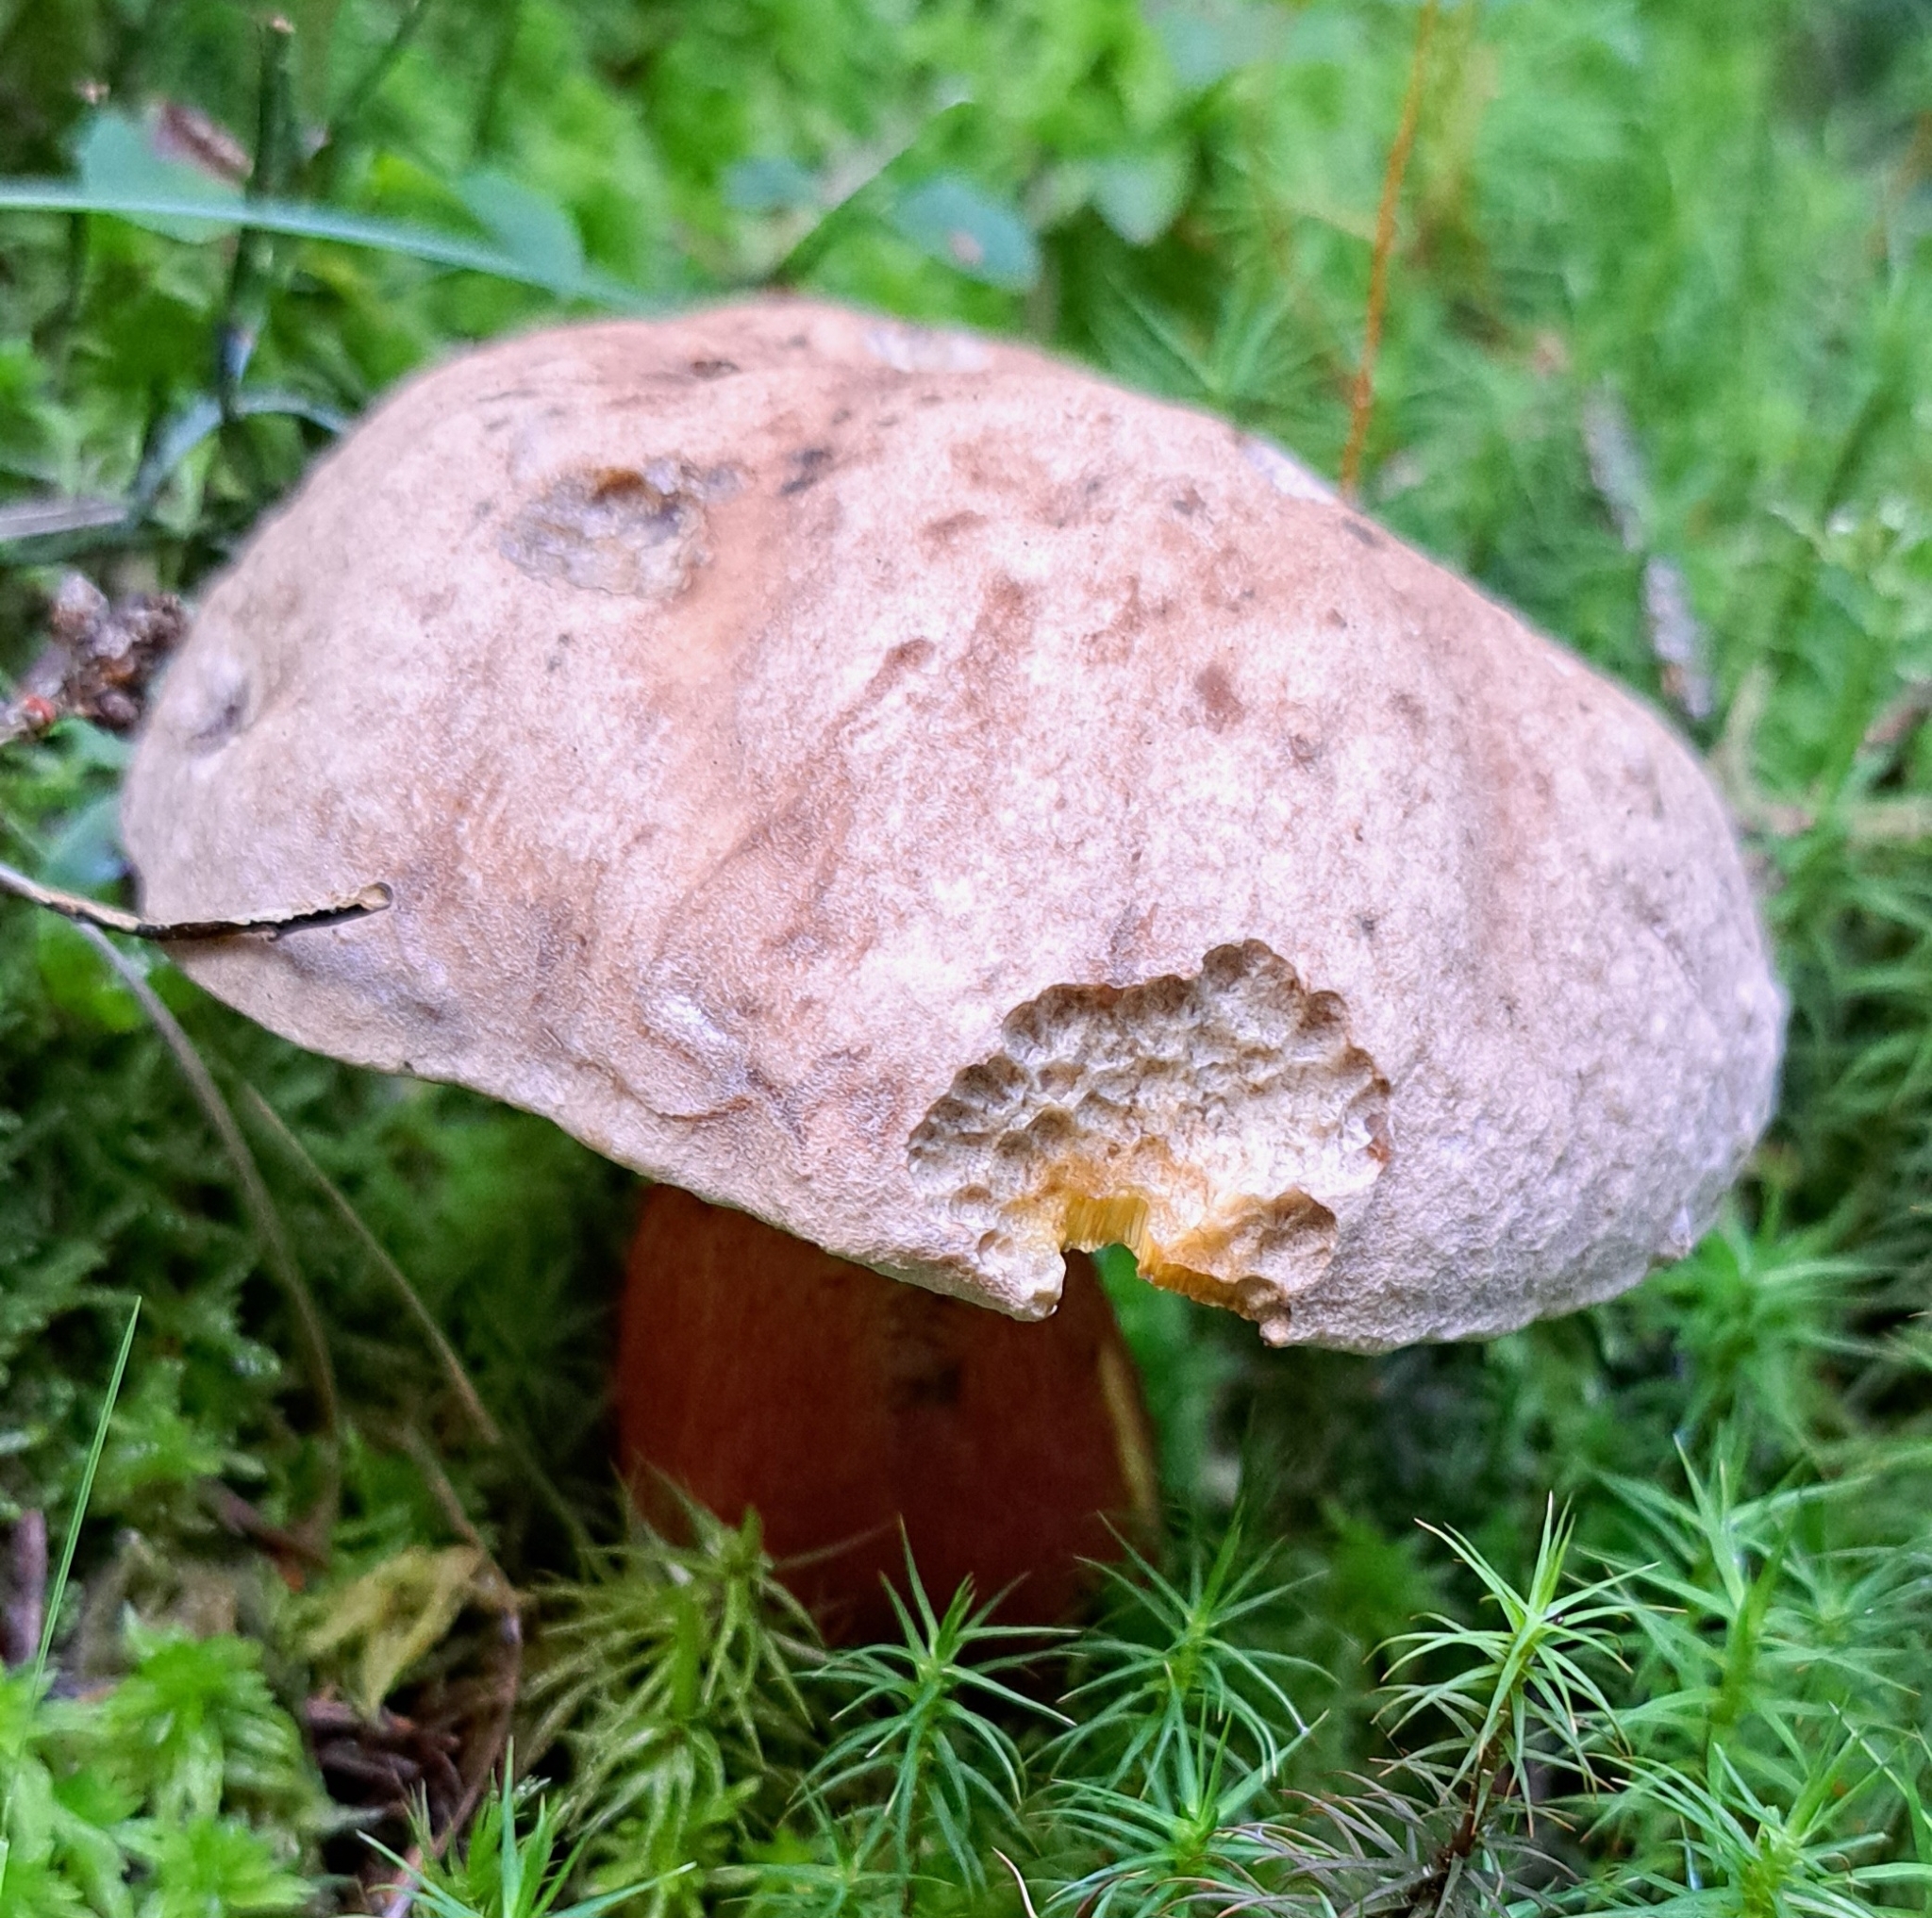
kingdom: Fungi
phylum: Basidiomycota
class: Agaricomycetes
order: Boletales
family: Boletaceae
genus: Caloboletus
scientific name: Caloboletus calopus
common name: Bitter beech bolete
